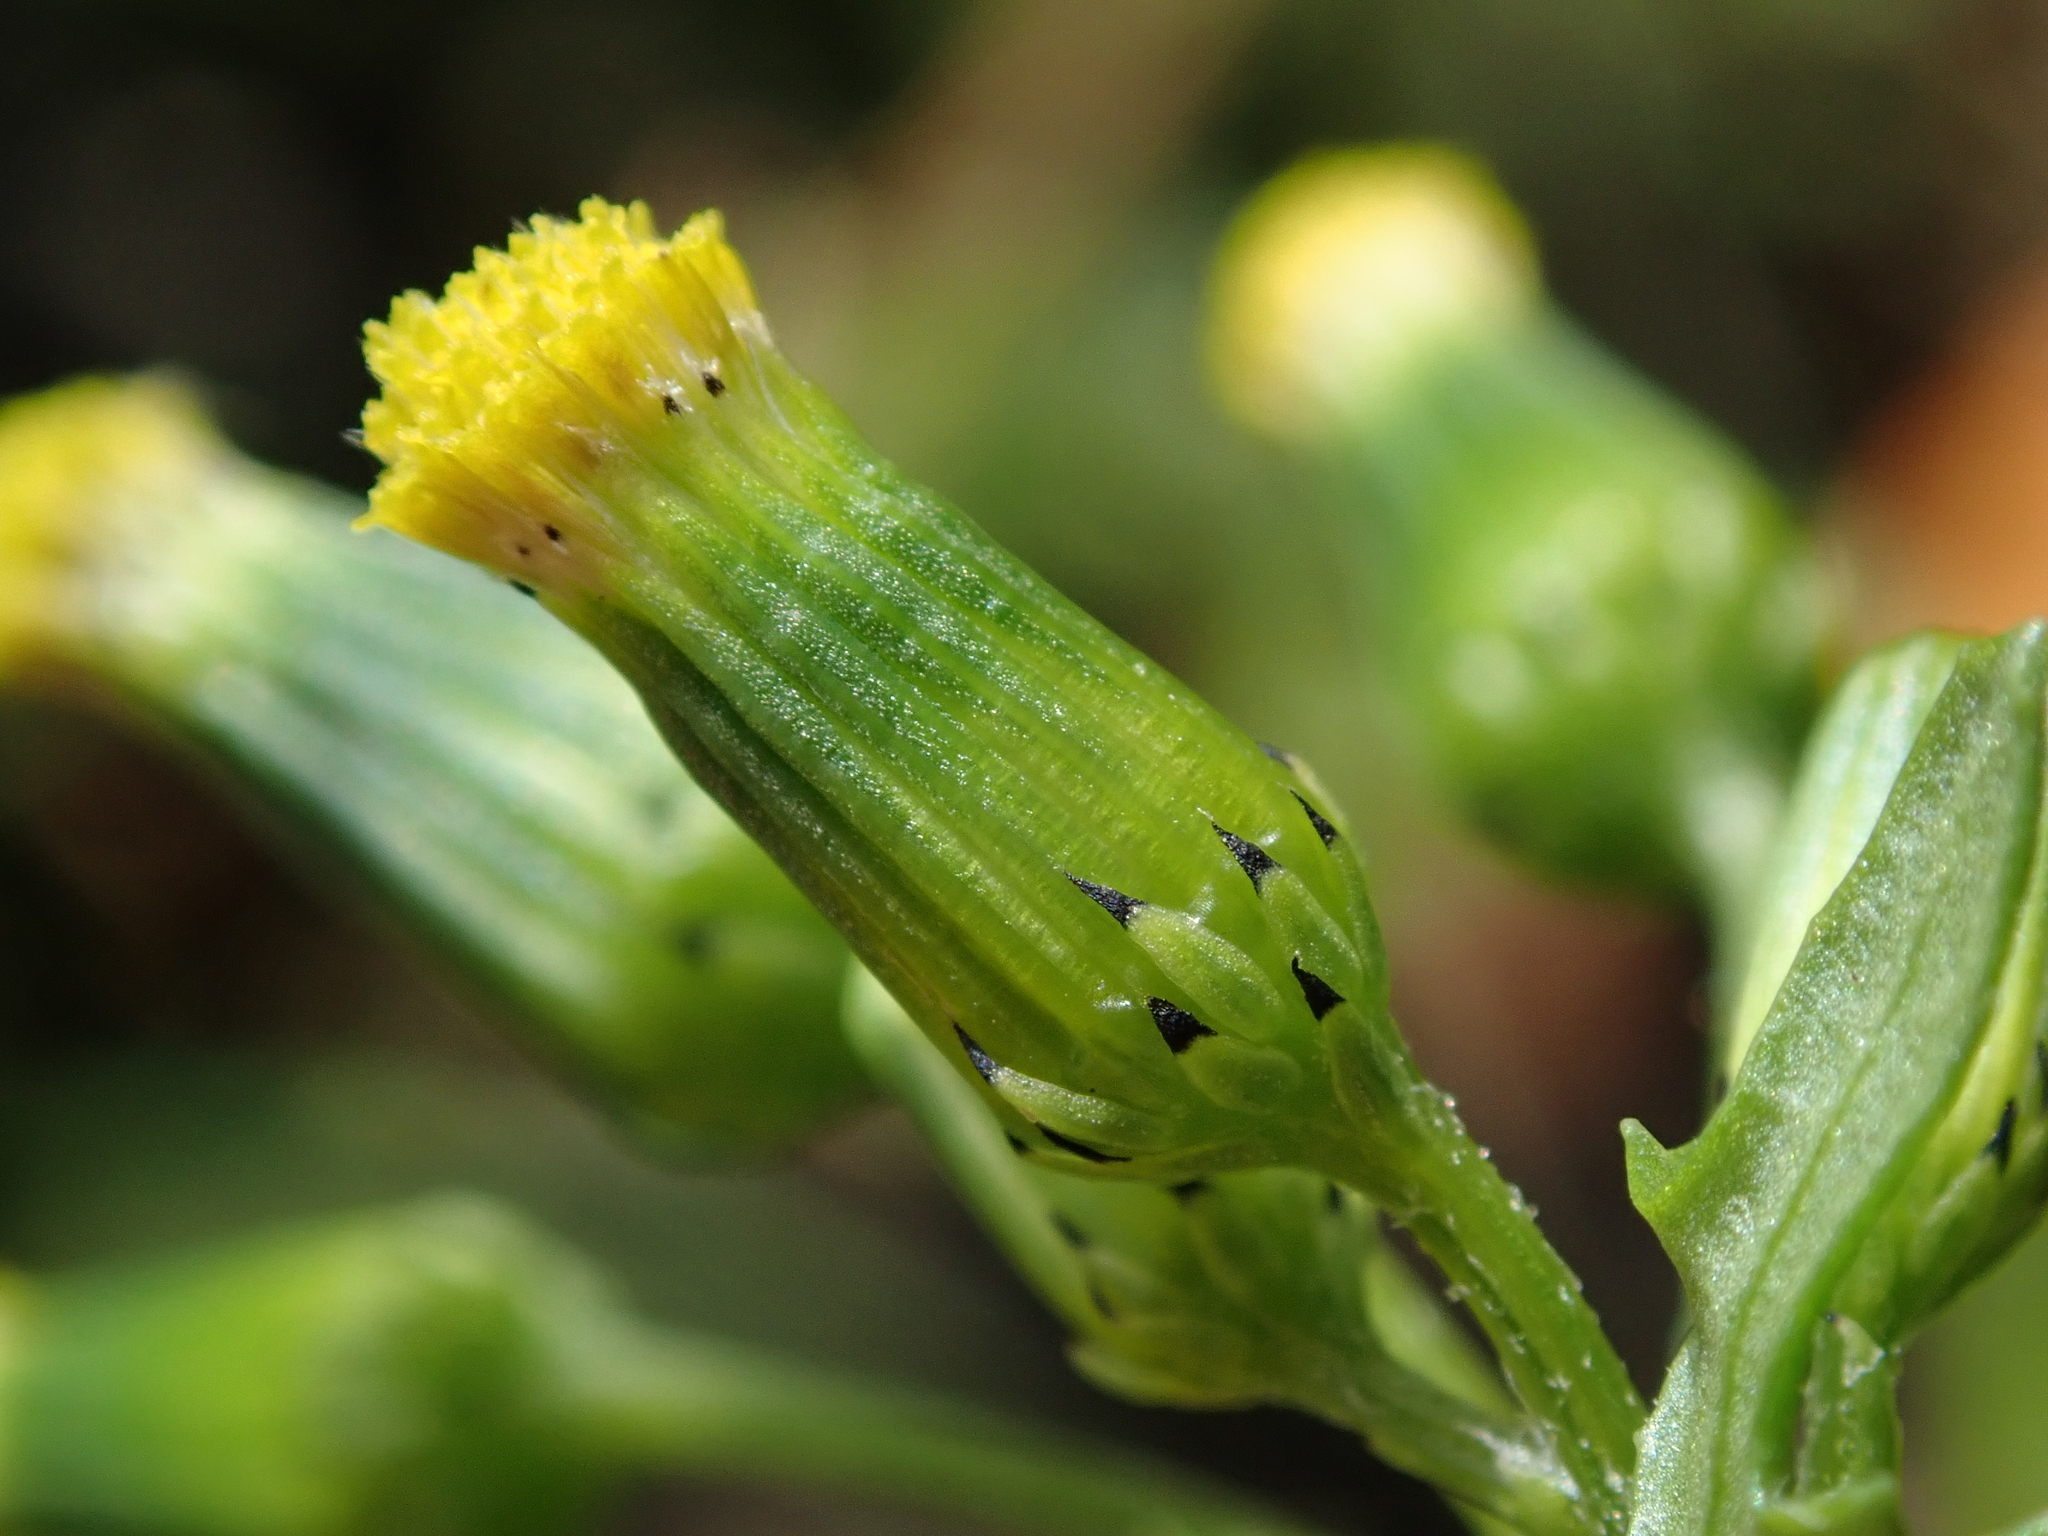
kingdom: Plantae
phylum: Tracheophyta
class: Magnoliopsida
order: Asterales
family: Asteraceae
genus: Senecio
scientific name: Senecio vulgaris
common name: Old-man-in-the-spring
